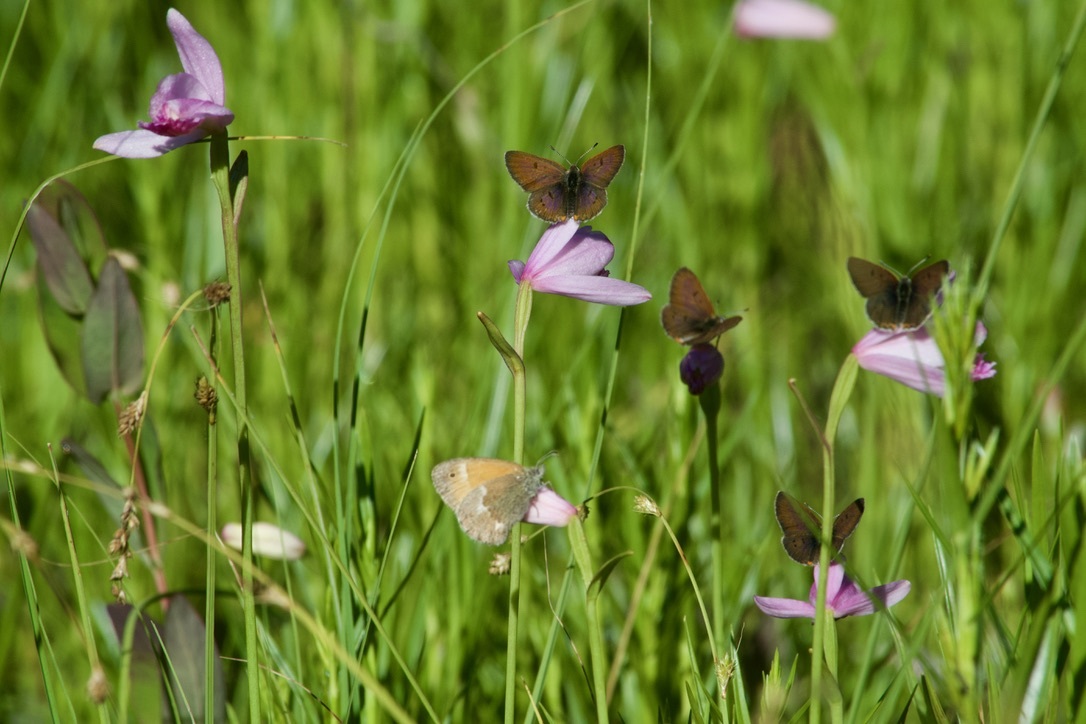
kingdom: Animalia
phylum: Arthropoda
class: Insecta
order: Lepidoptera
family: Nymphalidae
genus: Coenonympha
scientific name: Coenonympha california
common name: Common ringlet
